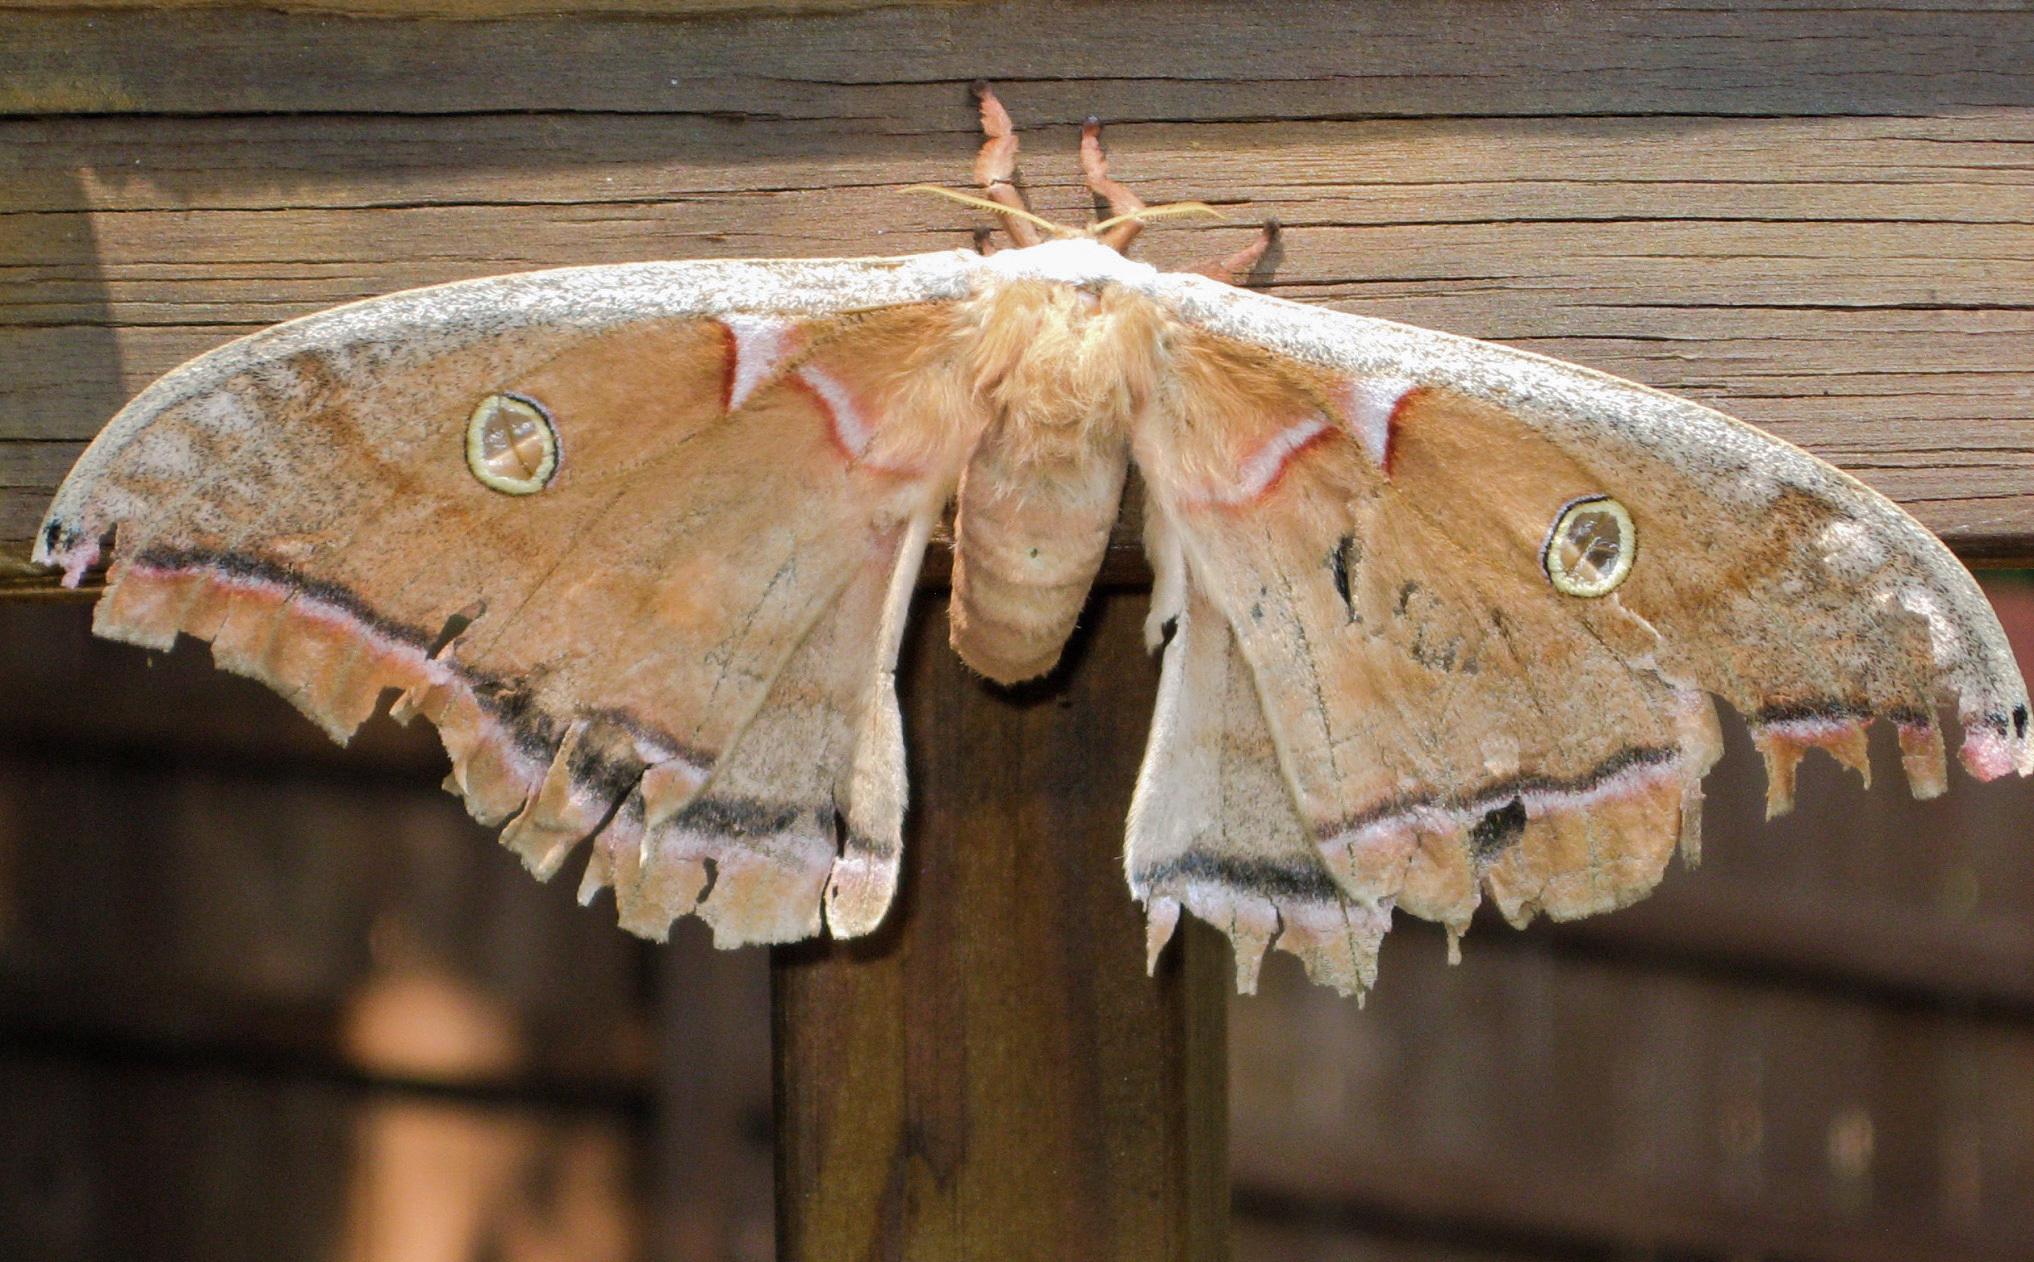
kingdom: Animalia
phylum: Arthropoda
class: Insecta
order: Lepidoptera
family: Saturniidae
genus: Antheraea
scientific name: Antheraea polyphemus
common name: Polyphemus moth
